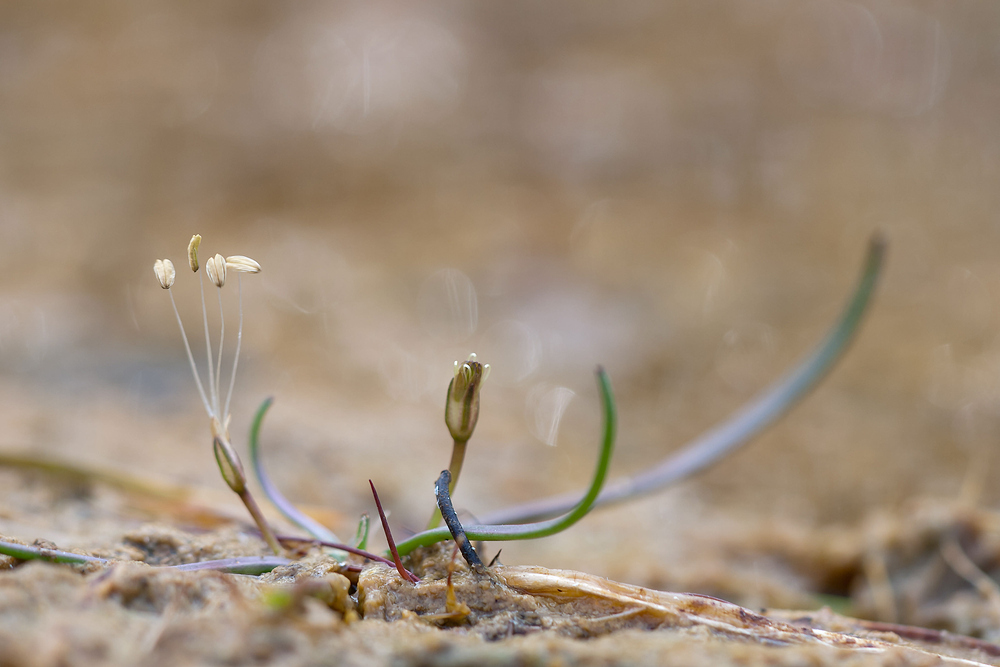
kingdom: Plantae
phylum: Tracheophyta
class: Magnoliopsida
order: Lamiales
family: Plantaginaceae
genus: Littorella
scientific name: Littorella uniflora
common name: Shoreweed
